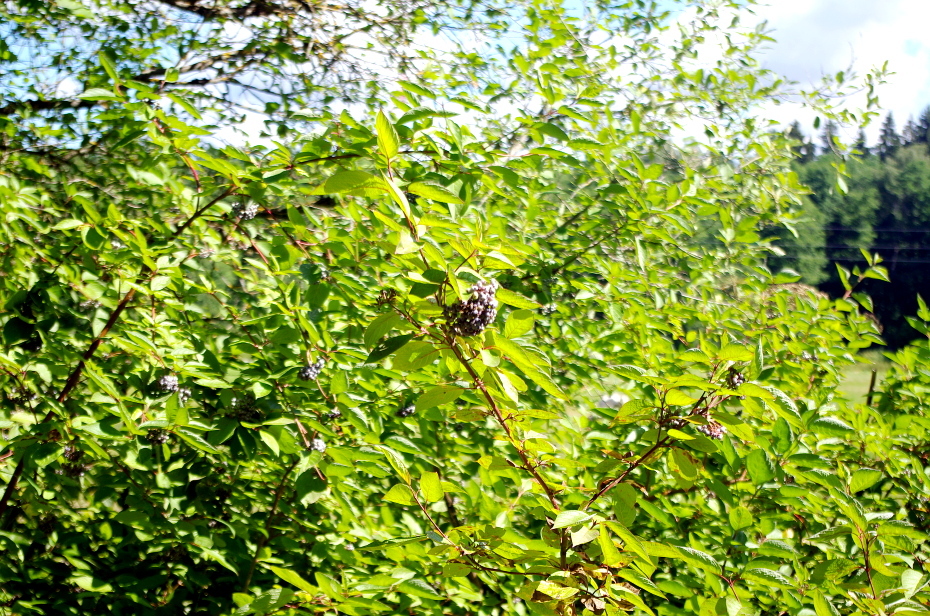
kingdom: Plantae
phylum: Tracheophyta
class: Magnoliopsida
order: Cornales
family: Cornaceae
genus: Cornus
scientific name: Cornus sericea
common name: Red-osier dogwood
